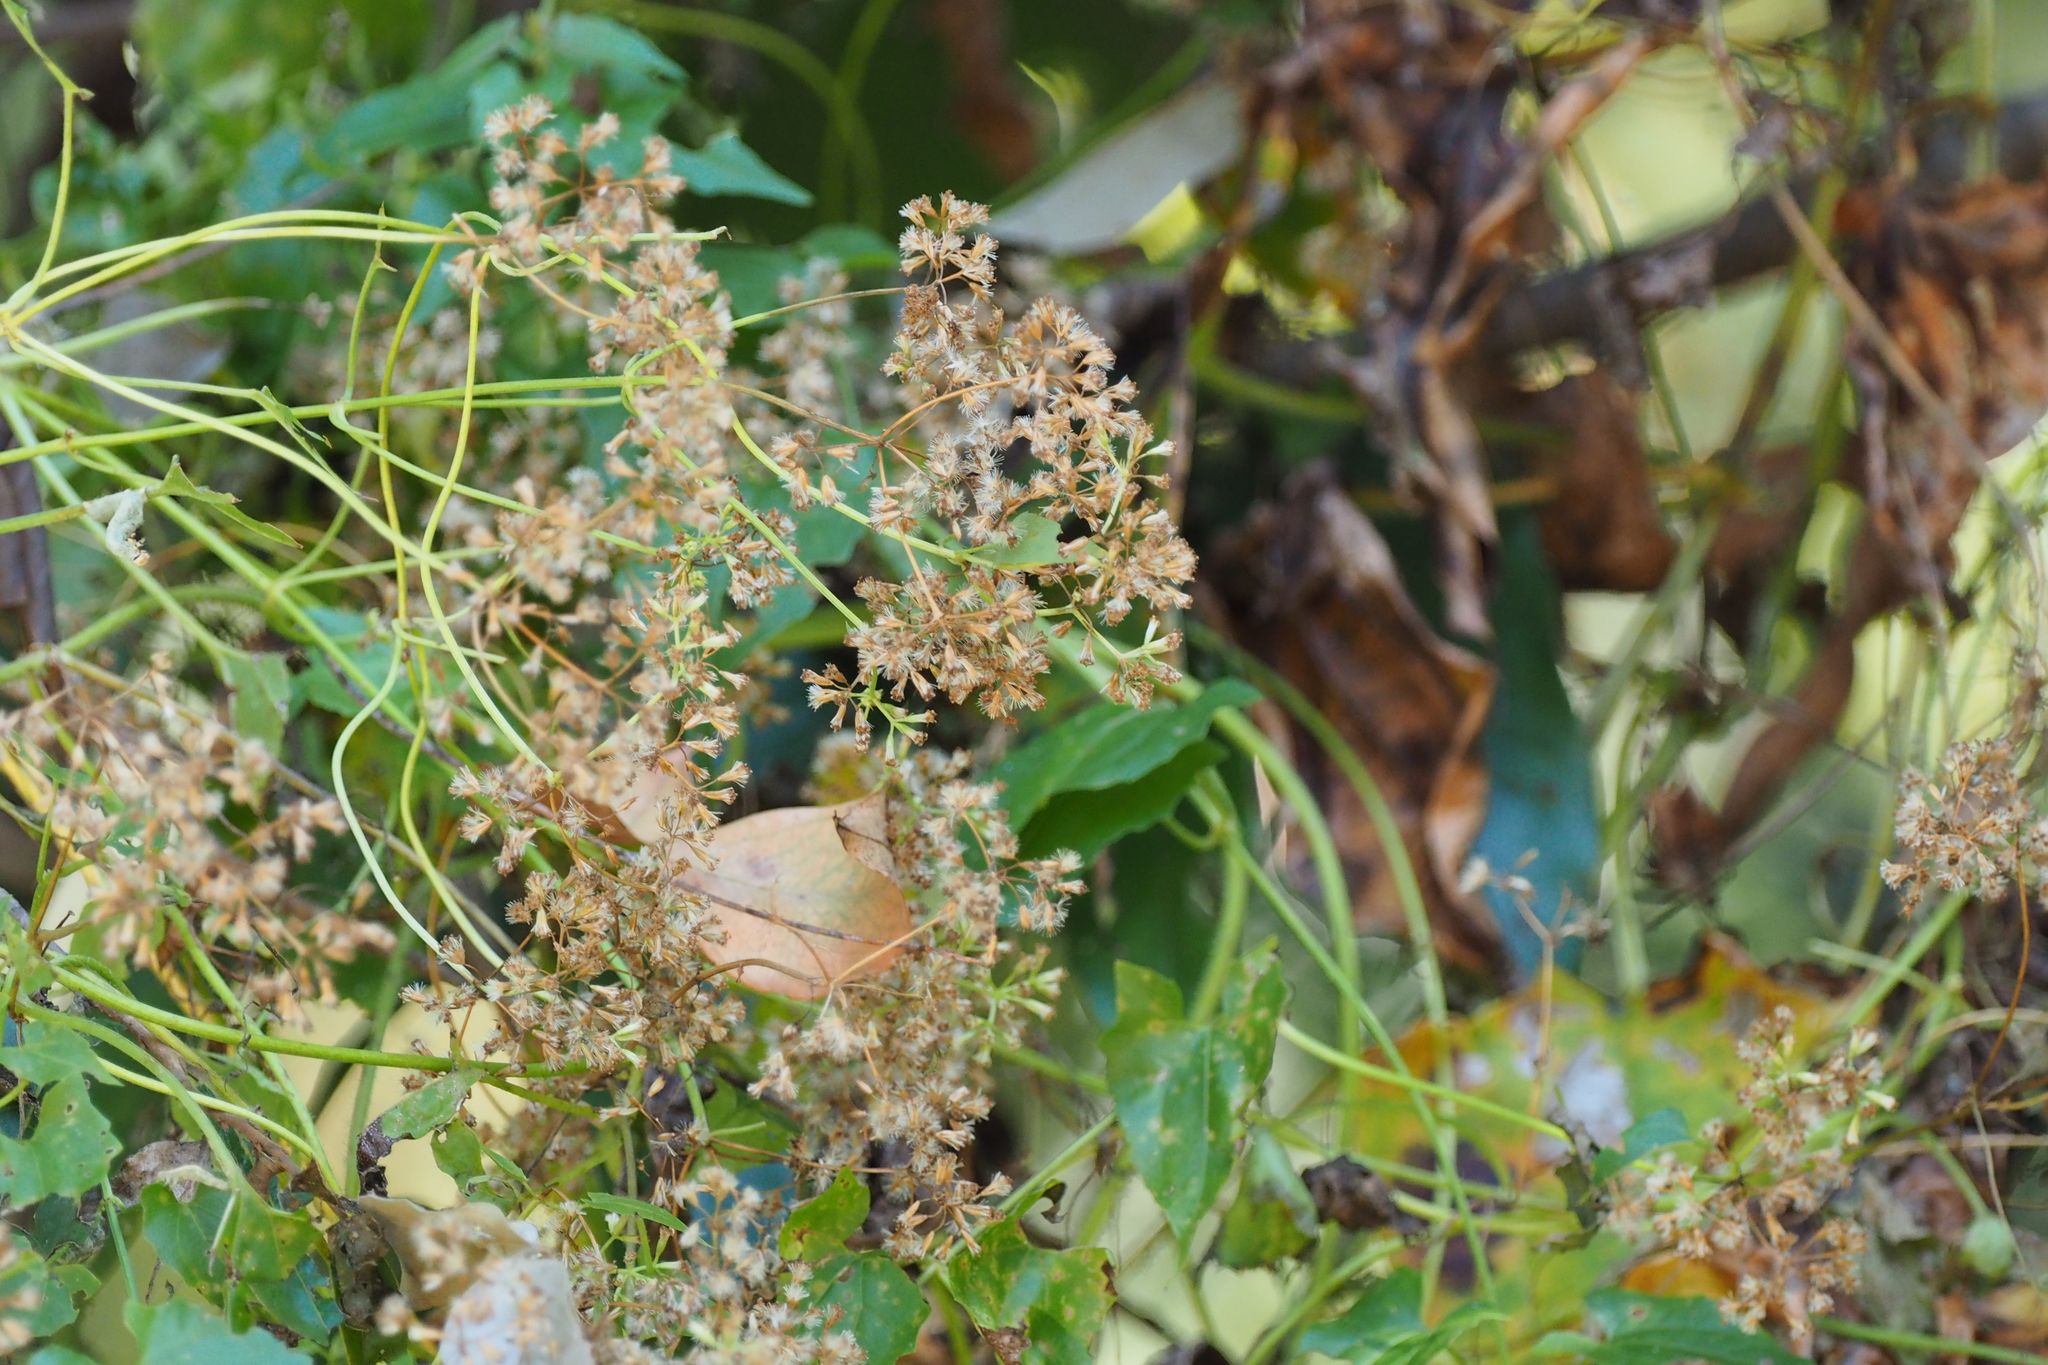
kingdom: Plantae
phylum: Tracheophyta
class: Magnoliopsida
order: Asterales
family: Asteraceae
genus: Mikania
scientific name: Mikania micrantha
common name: Mile-a-minute
